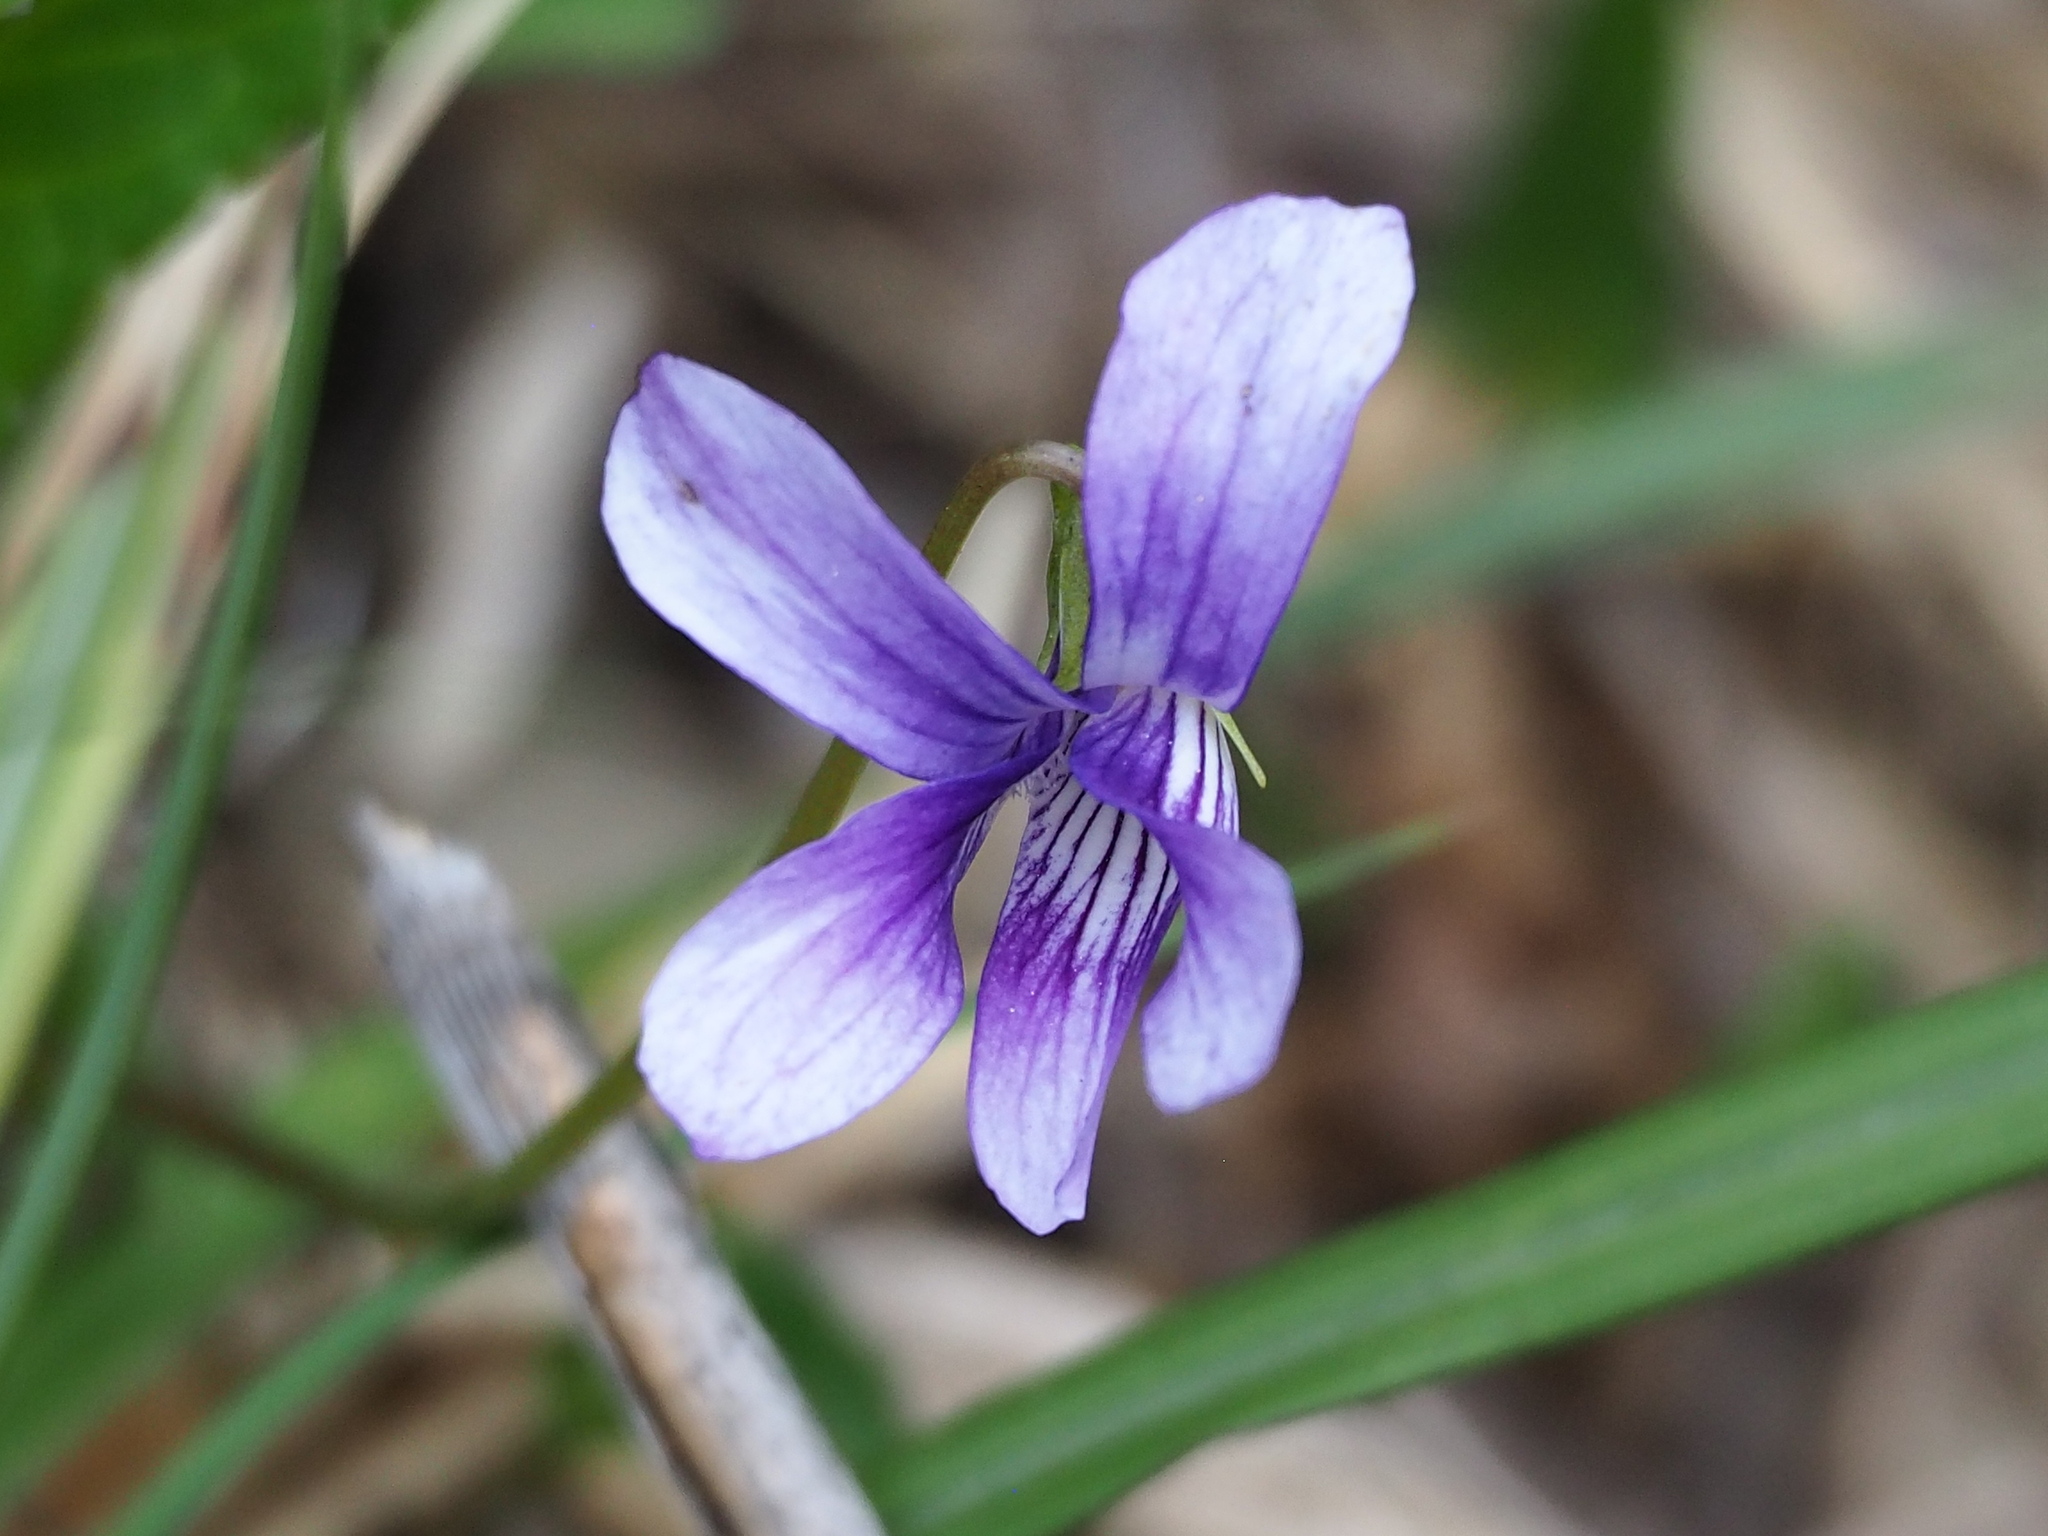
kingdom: Plantae
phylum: Tracheophyta
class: Magnoliopsida
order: Malpighiales
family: Violaceae
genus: Viola
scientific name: Viola mandshurica
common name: Manchuria violet
